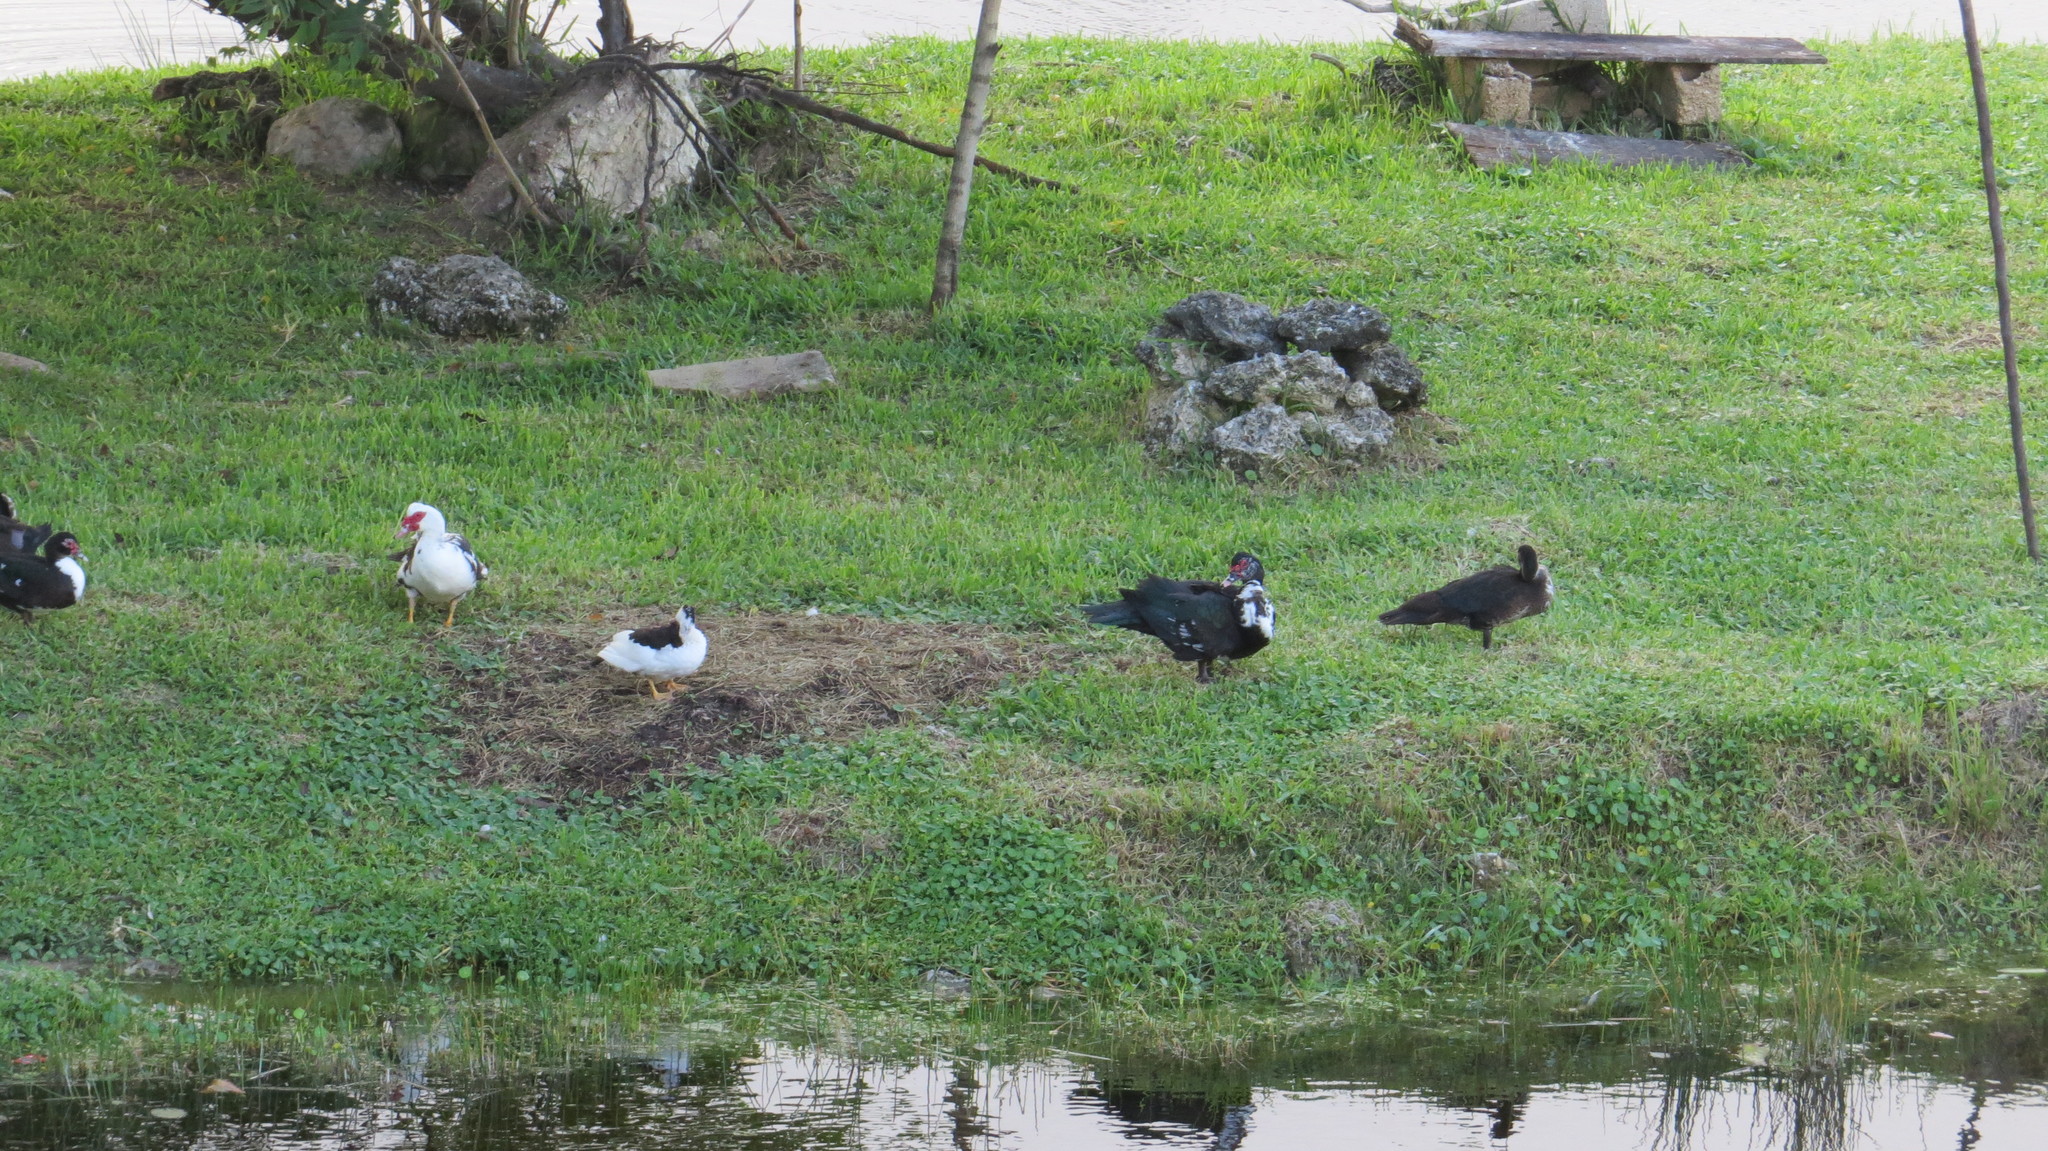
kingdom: Animalia
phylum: Chordata
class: Aves
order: Anseriformes
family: Anatidae
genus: Cairina
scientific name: Cairina moschata
